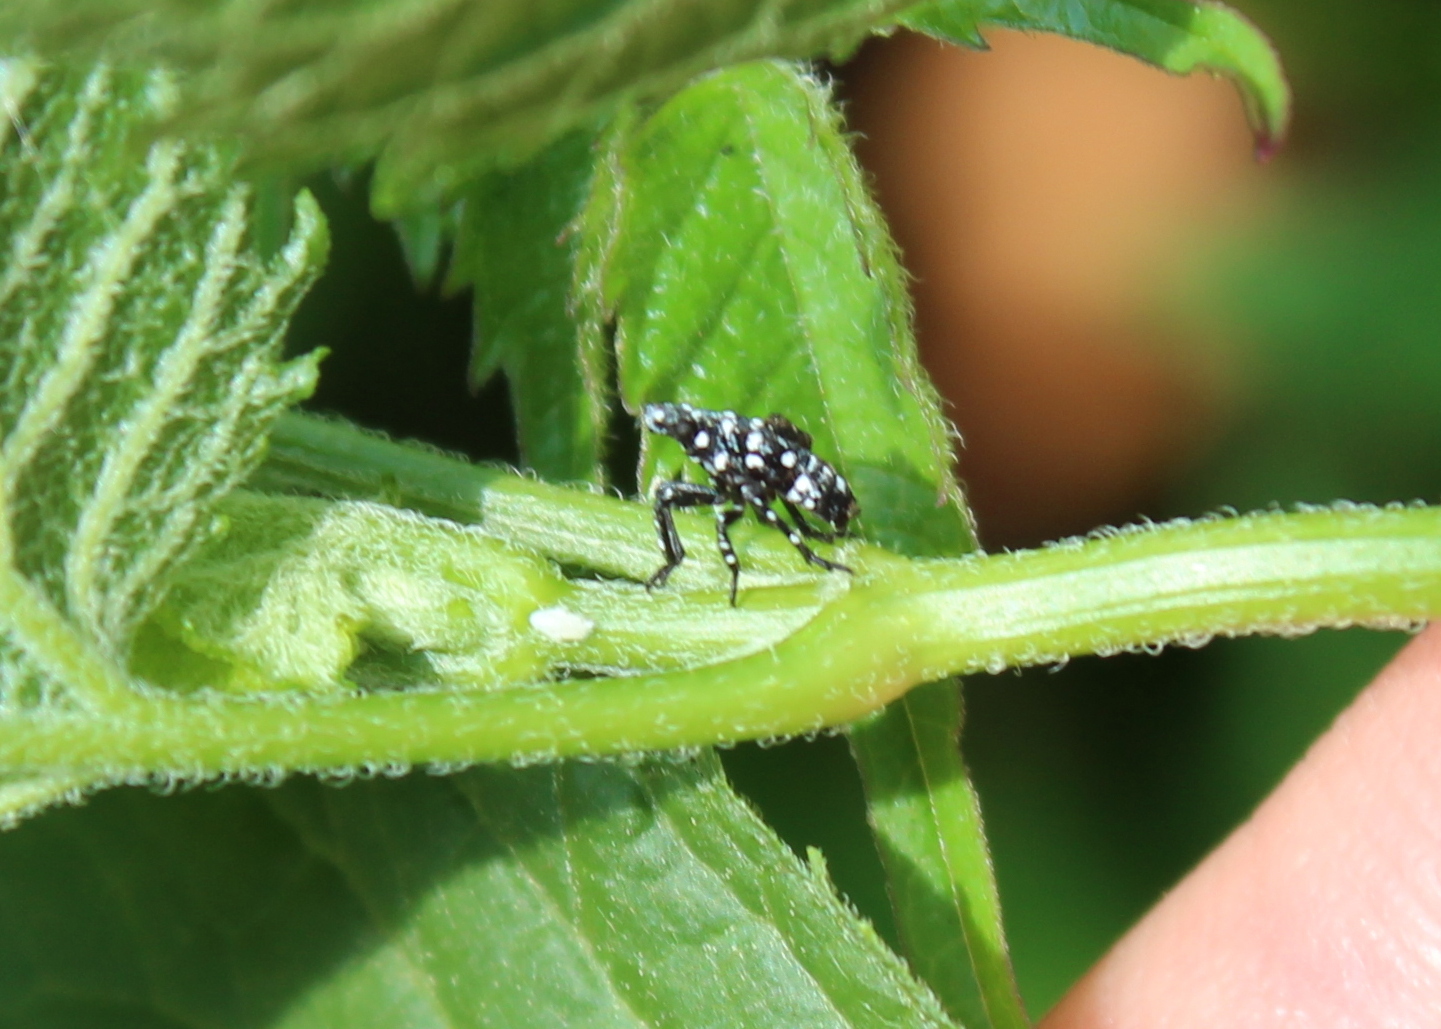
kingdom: Animalia
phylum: Arthropoda
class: Insecta
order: Hemiptera
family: Fulgoridae
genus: Lycorma
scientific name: Lycorma delicatula
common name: Spotted lanternfly
